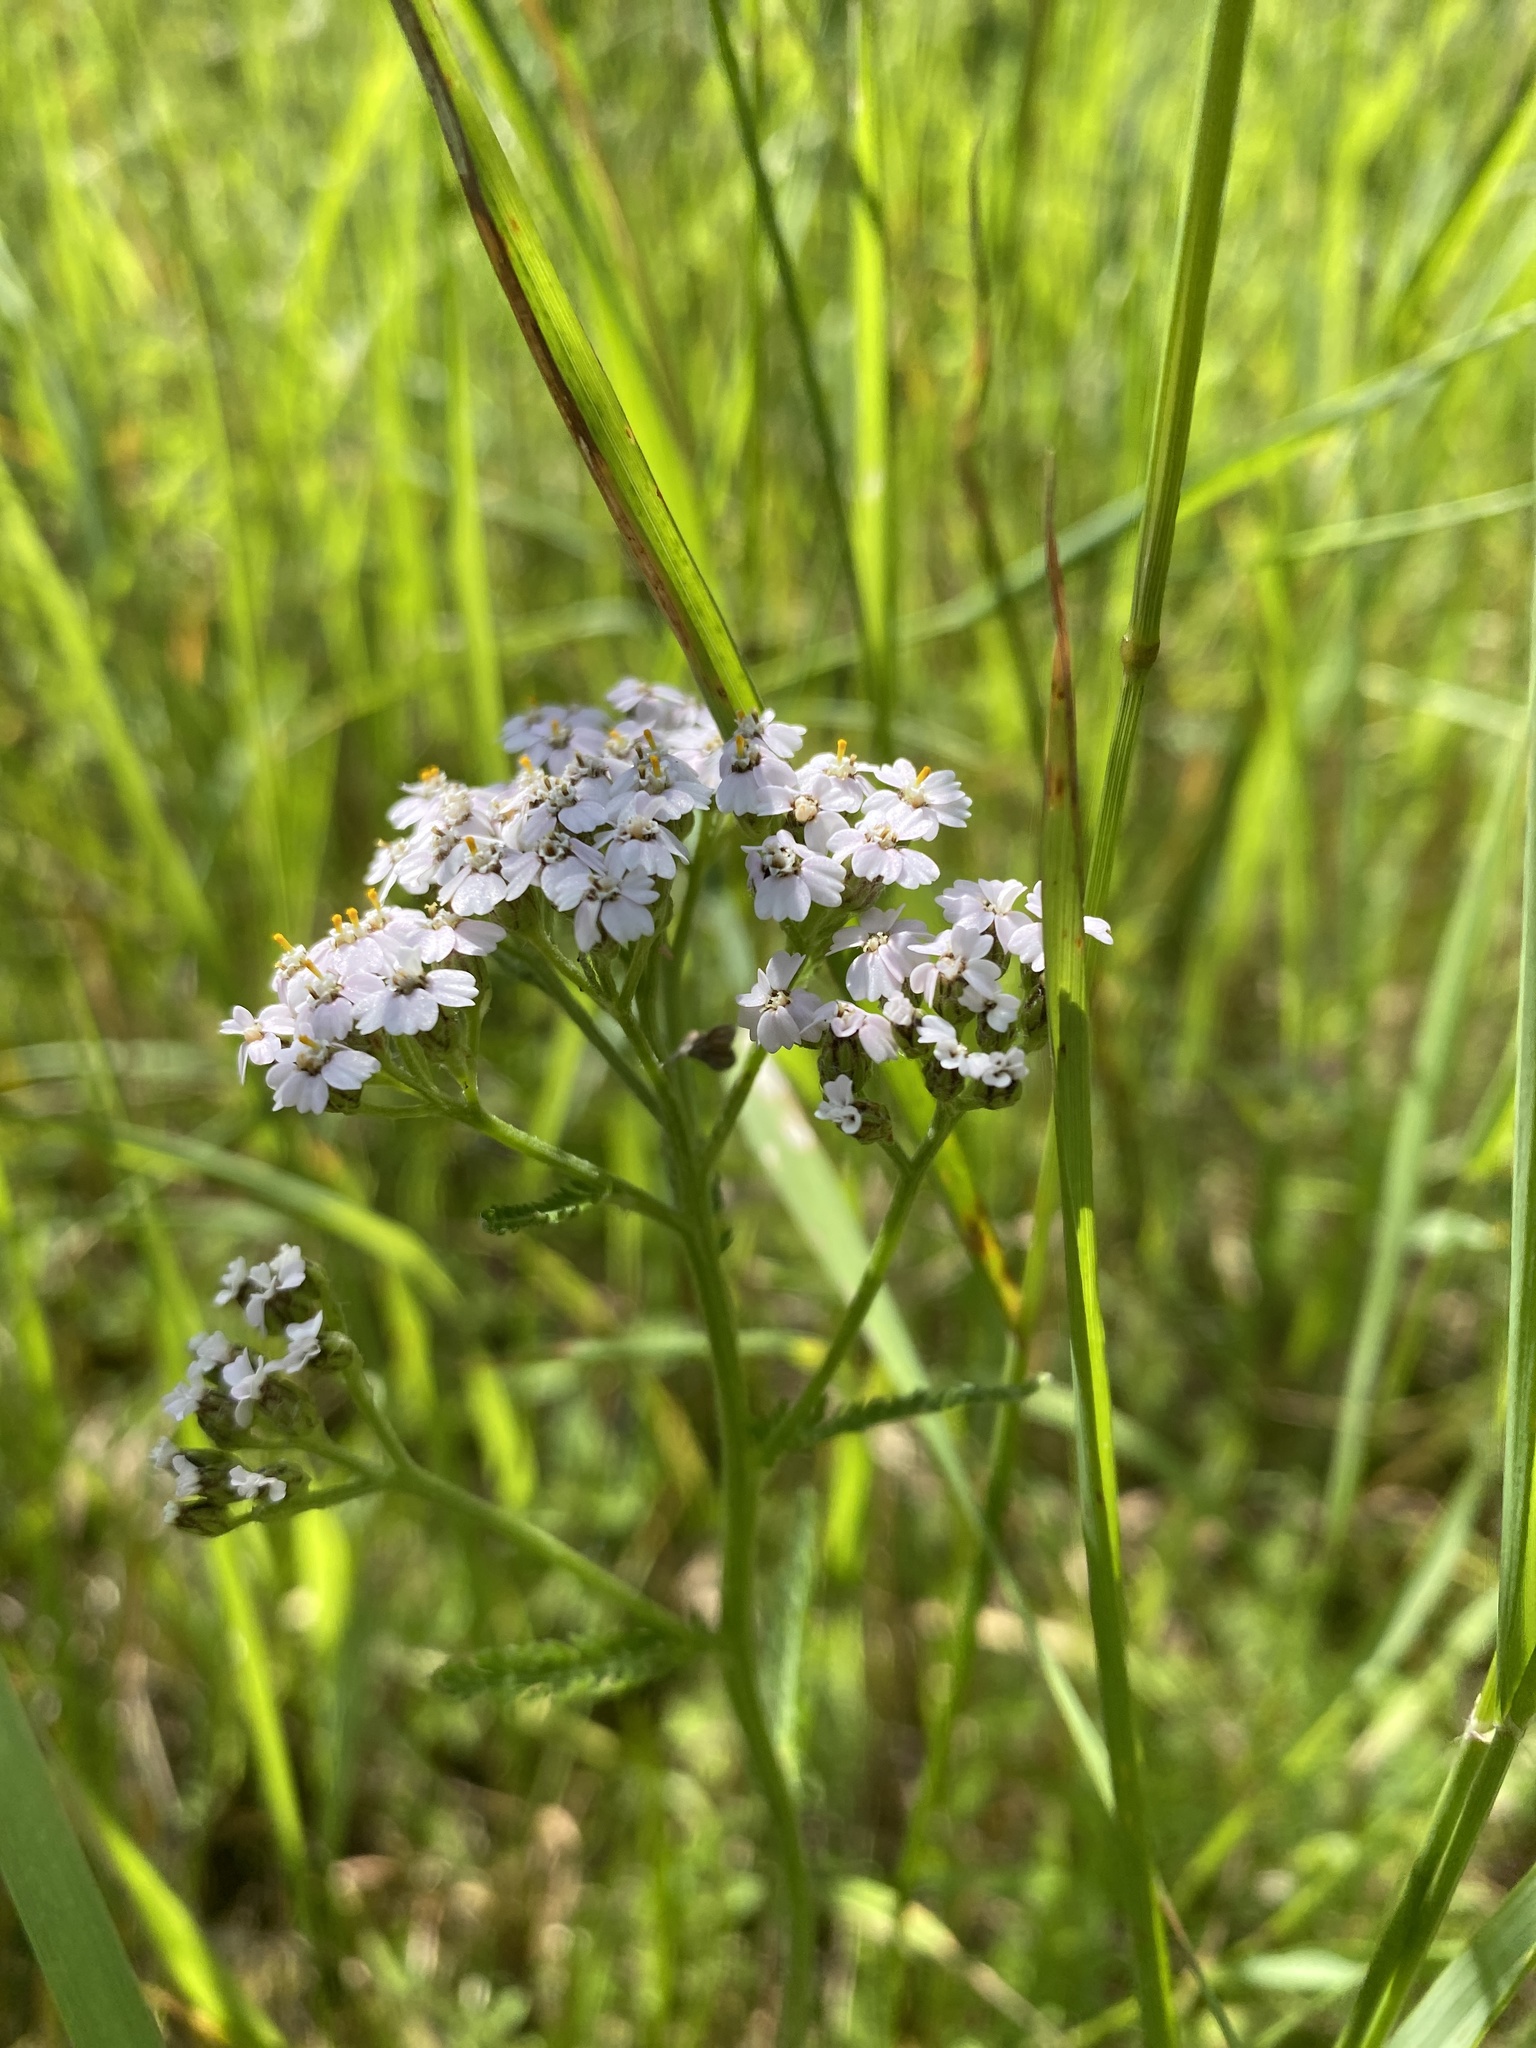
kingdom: Plantae
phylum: Tracheophyta
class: Magnoliopsida
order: Asterales
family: Asteraceae
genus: Achillea
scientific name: Achillea millefolium
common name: Yarrow
